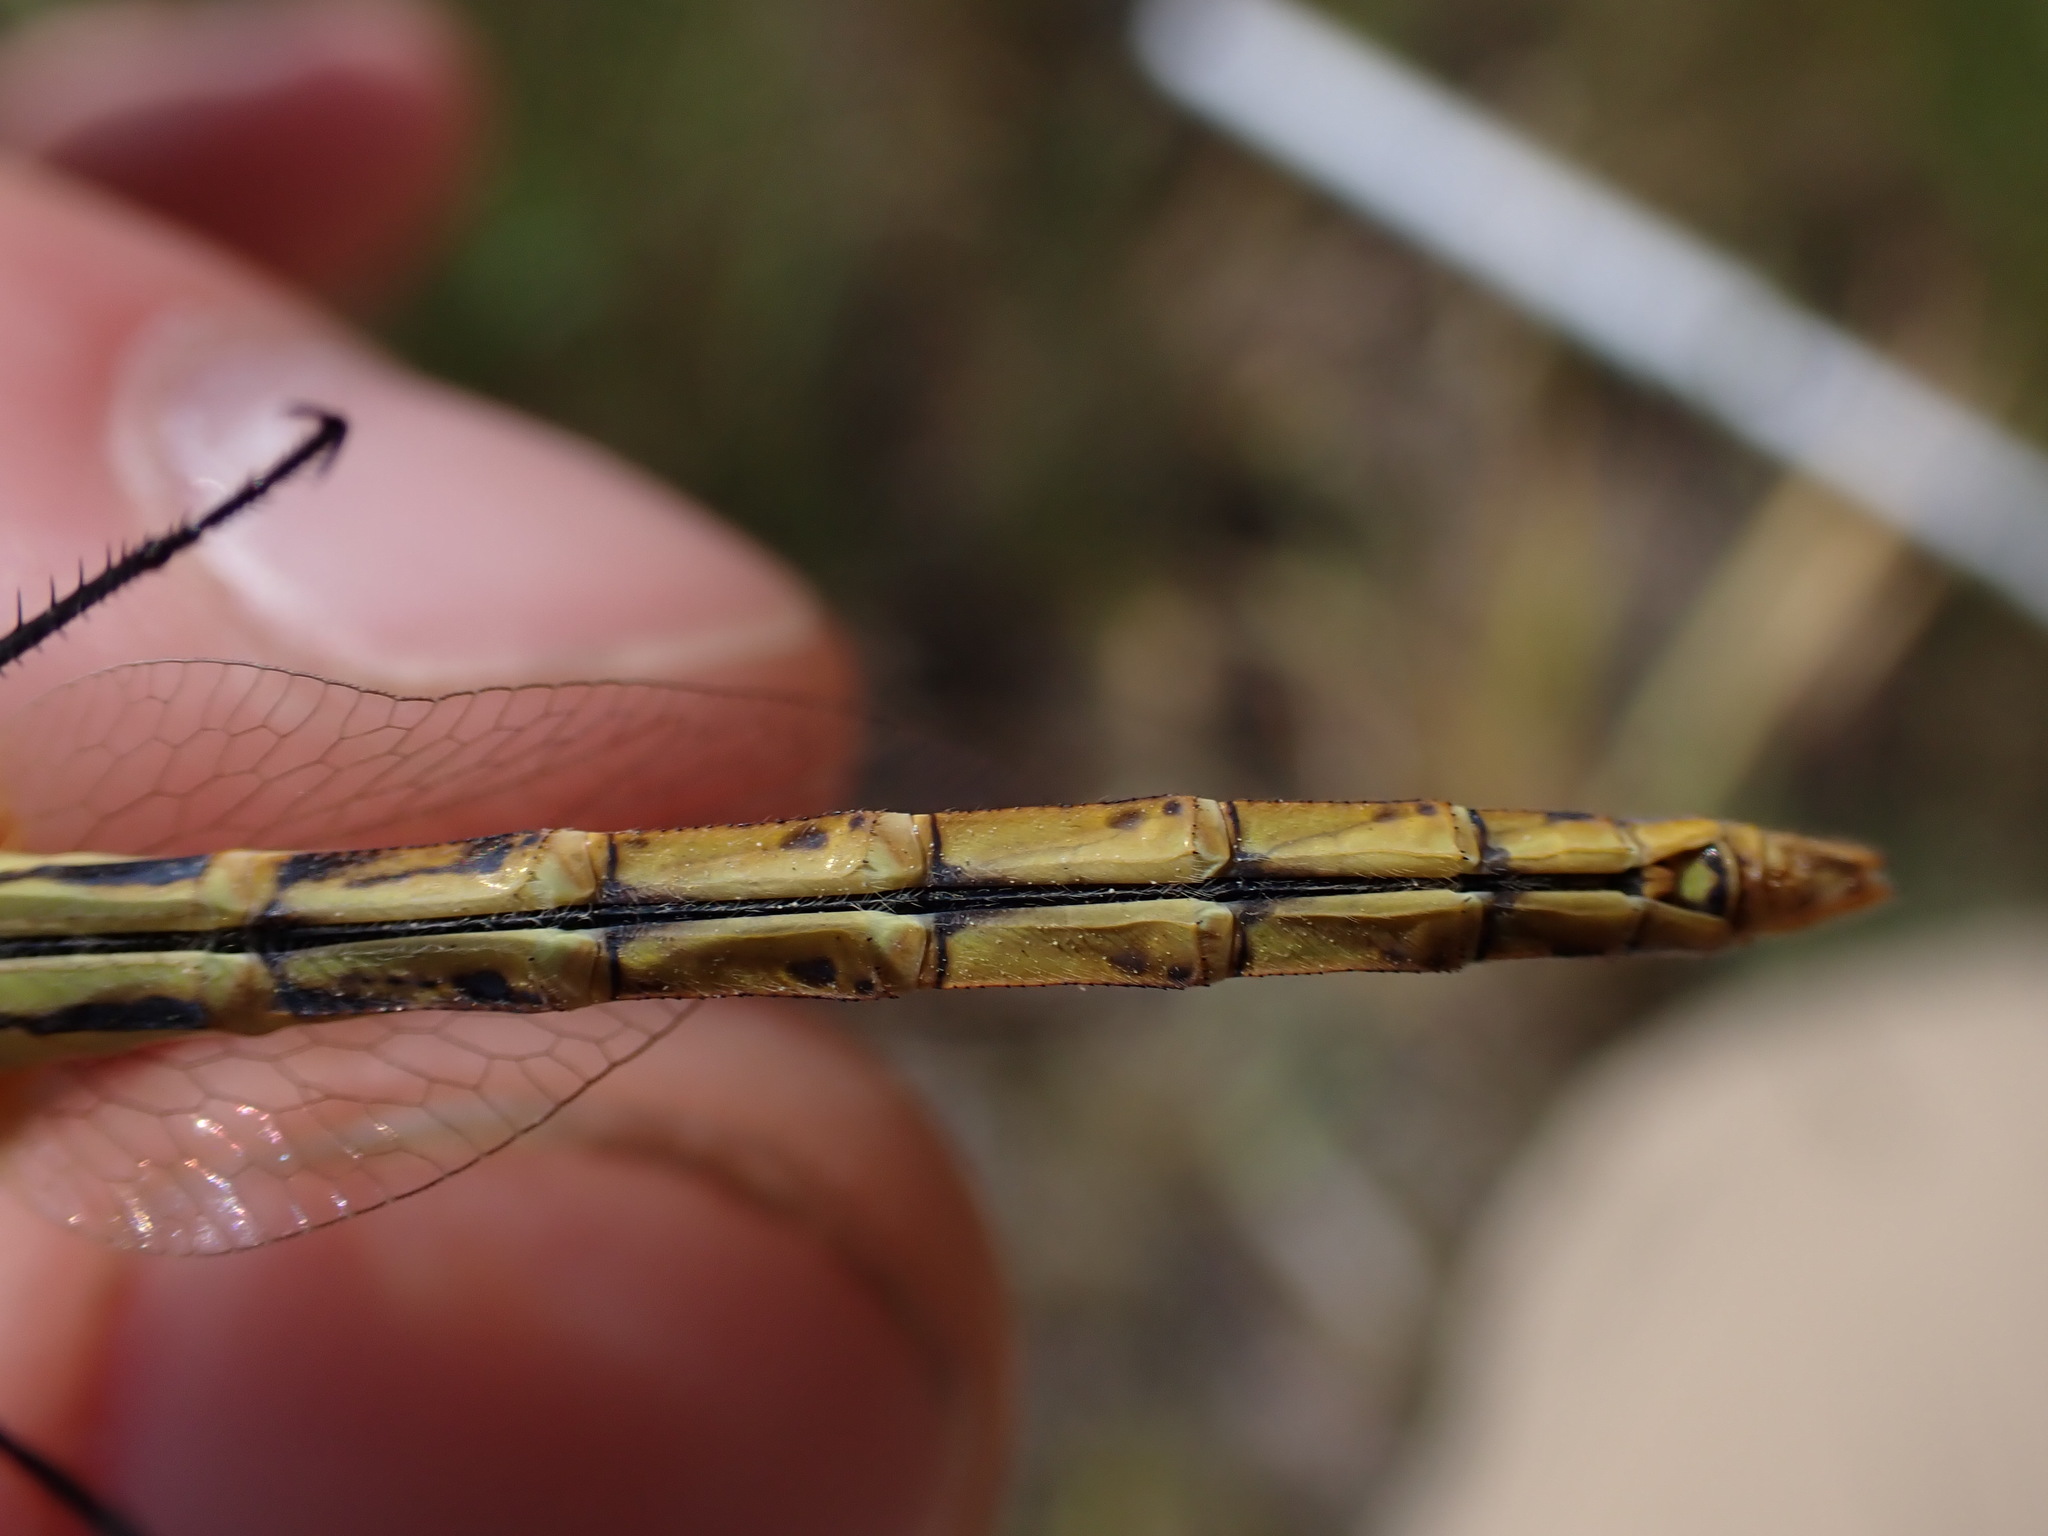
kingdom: Animalia
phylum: Arthropoda
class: Insecta
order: Odonata
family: Libellulidae
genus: Sympetrum
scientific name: Sympetrum fonscolombii
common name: Red-veined darter
